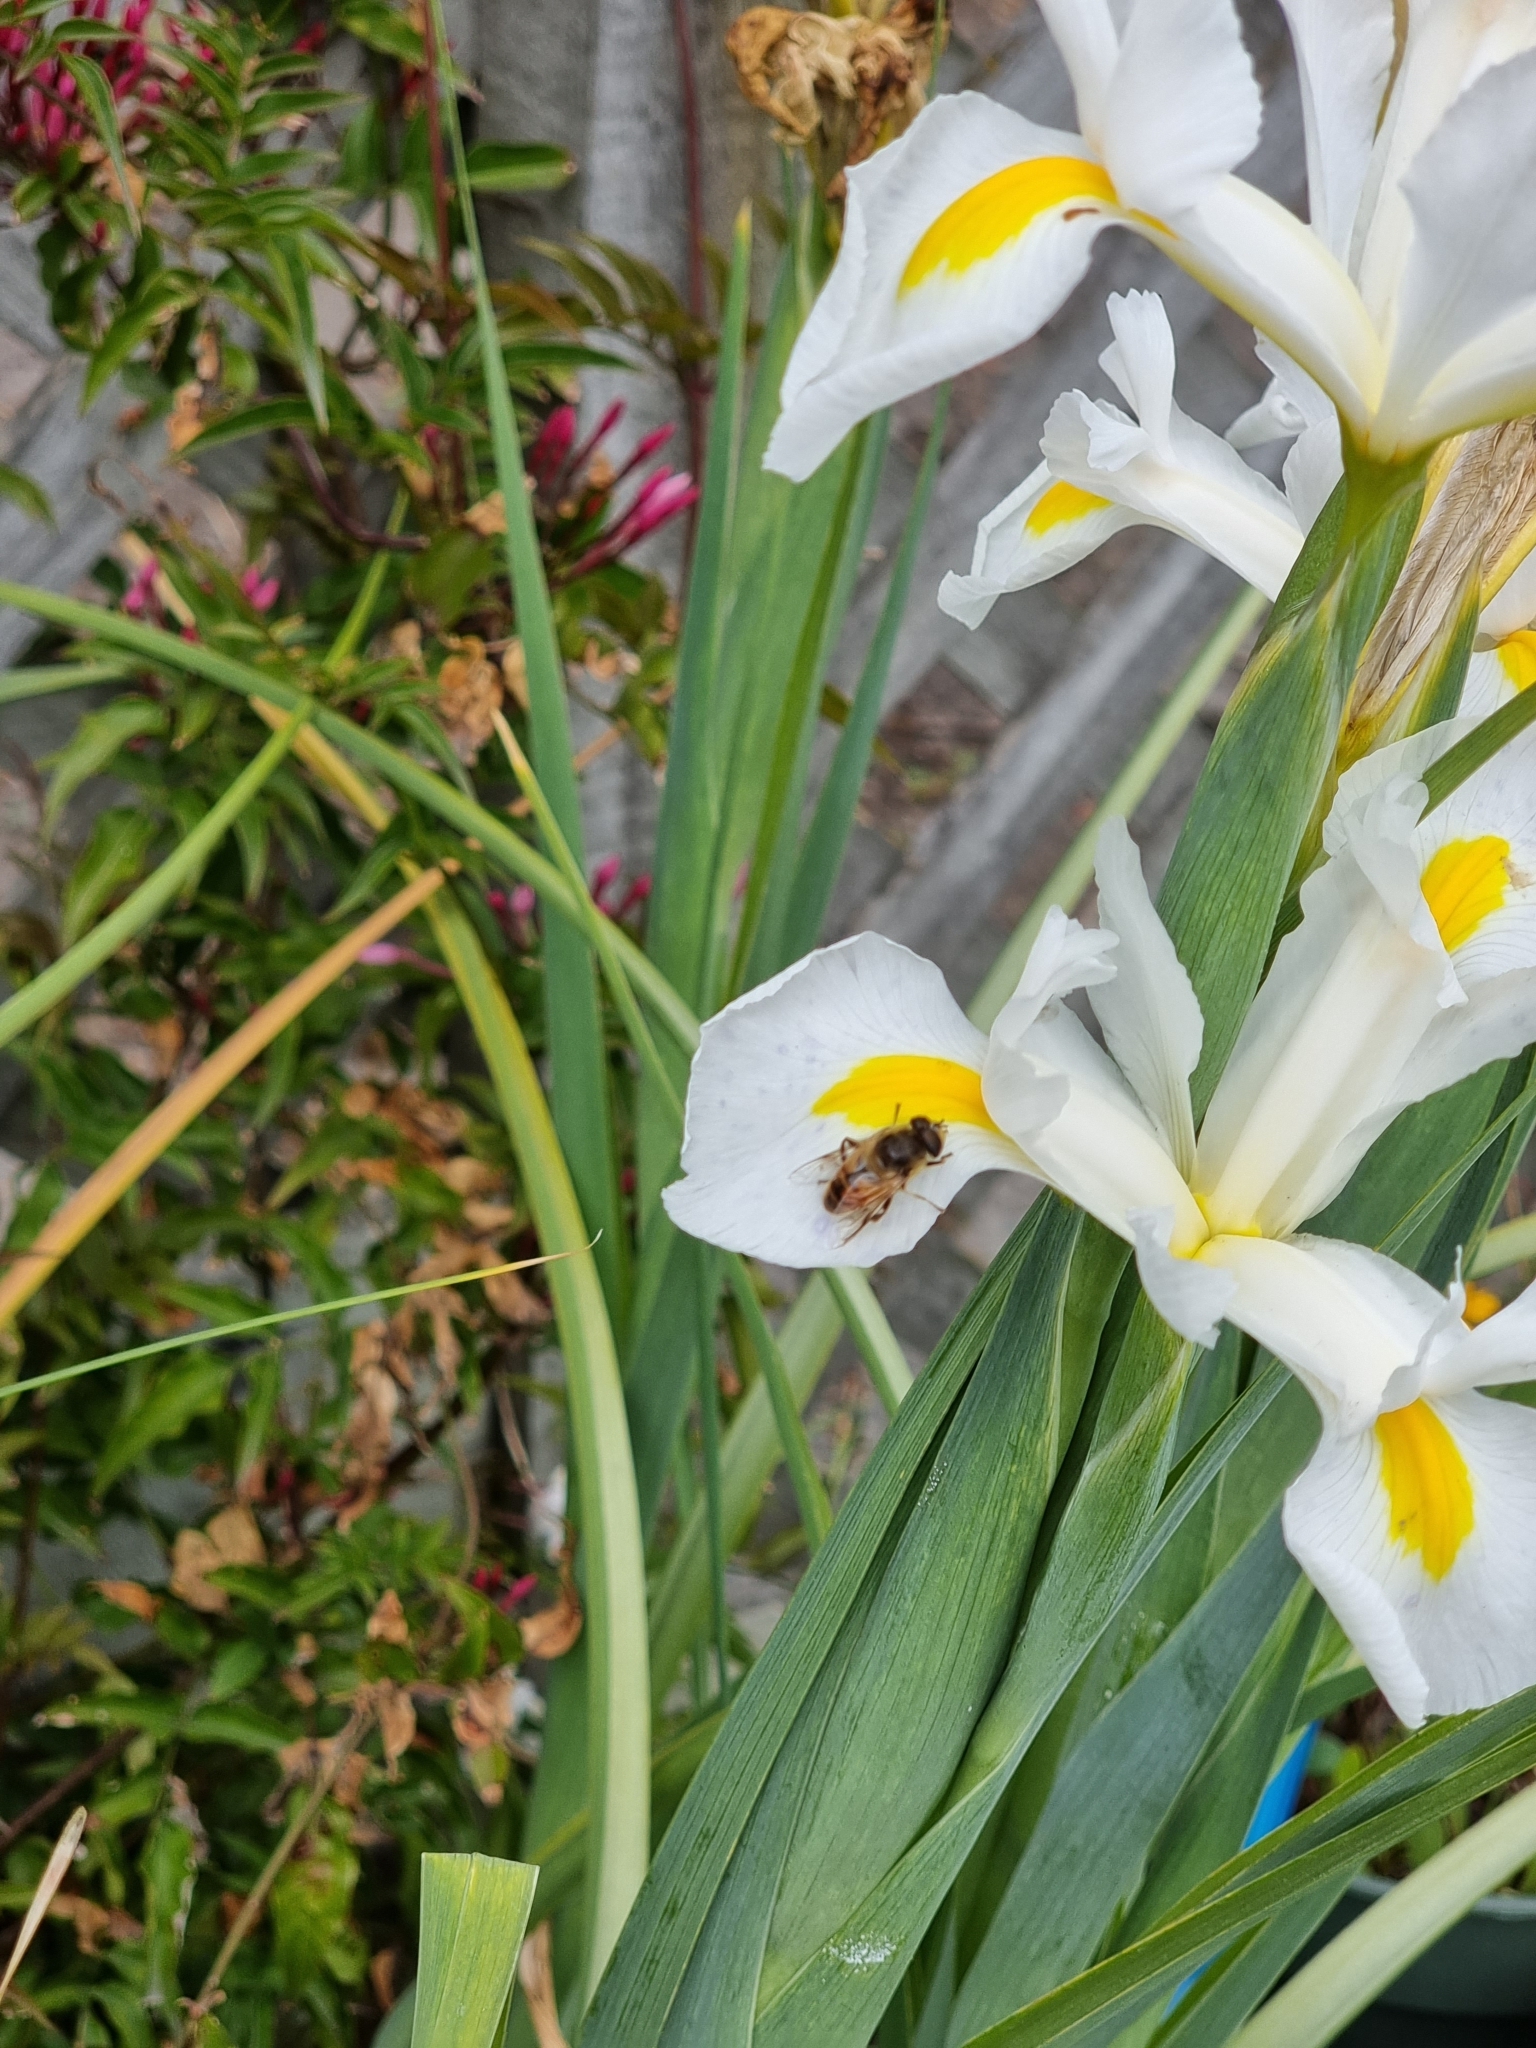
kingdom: Animalia
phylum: Arthropoda
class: Insecta
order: Diptera
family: Syrphidae
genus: Eristalis
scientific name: Eristalis tenax
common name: Drone fly
